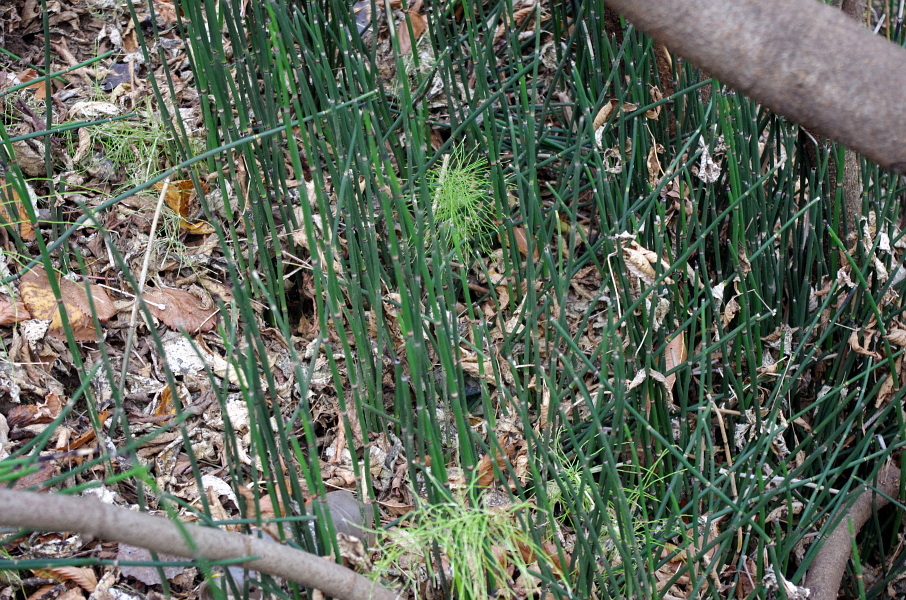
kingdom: Plantae
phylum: Tracheophyta
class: Polypodiopsida
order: Equisetales
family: Equisetaceae
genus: Equisetum
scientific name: Equisetum hyemale
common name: Rough horsetail
